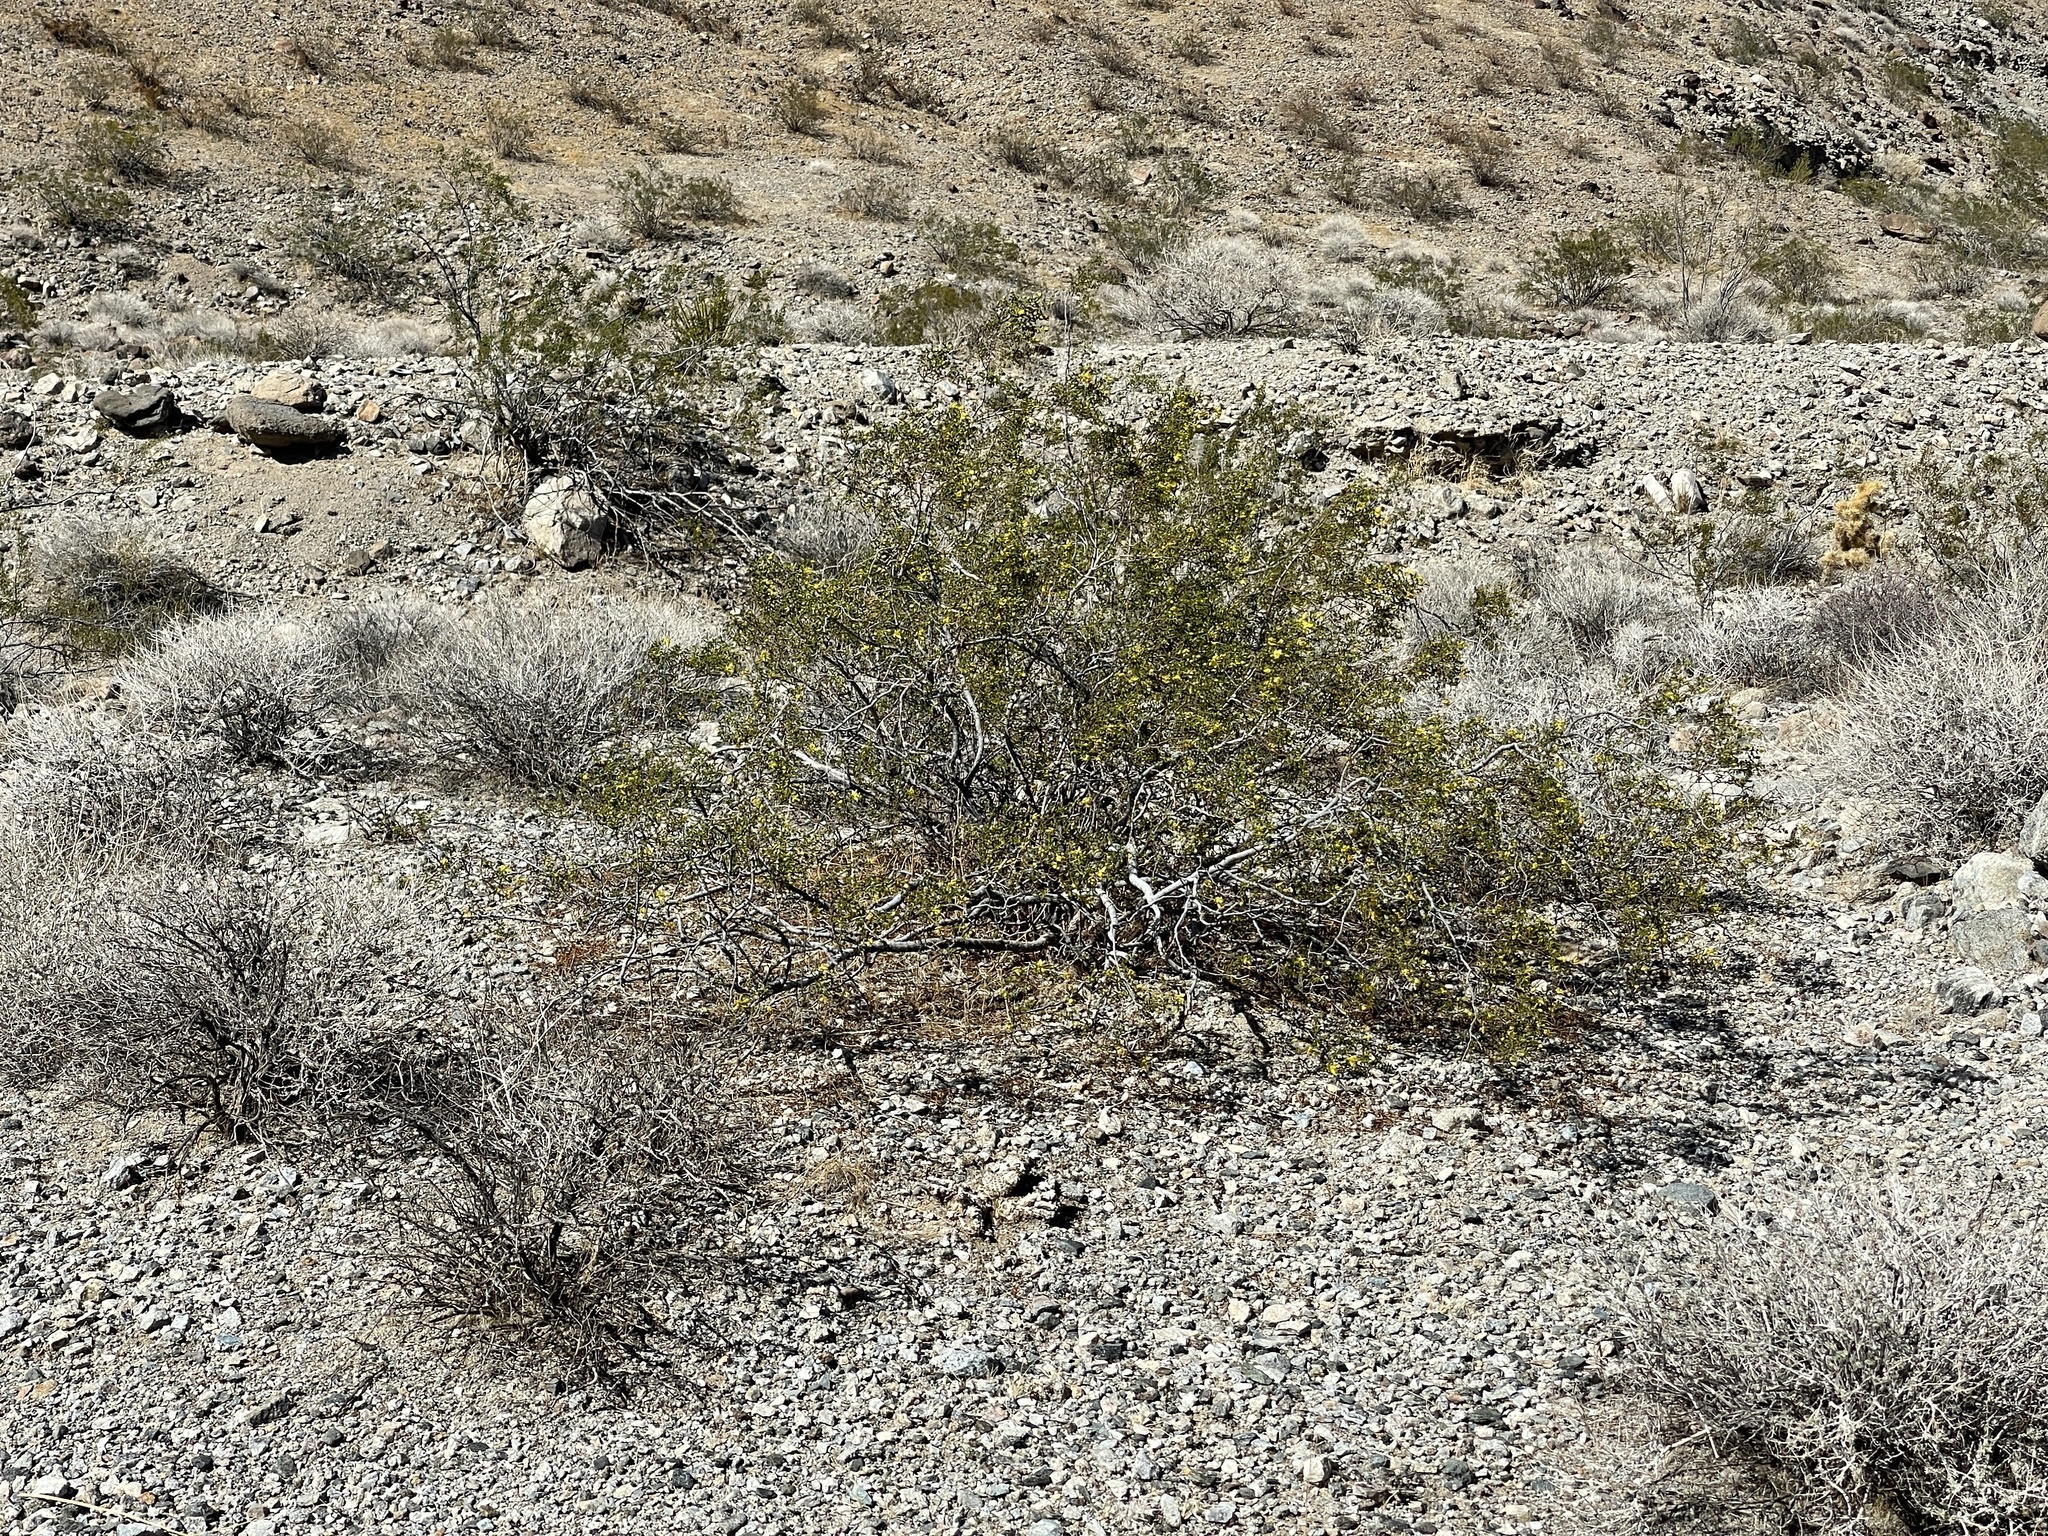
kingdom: Plantae
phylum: Tracheophyta
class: Magnoliopsida
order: Zygophyllales
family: Zygophyllaceae
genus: Larrea
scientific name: Larrea tridentata
